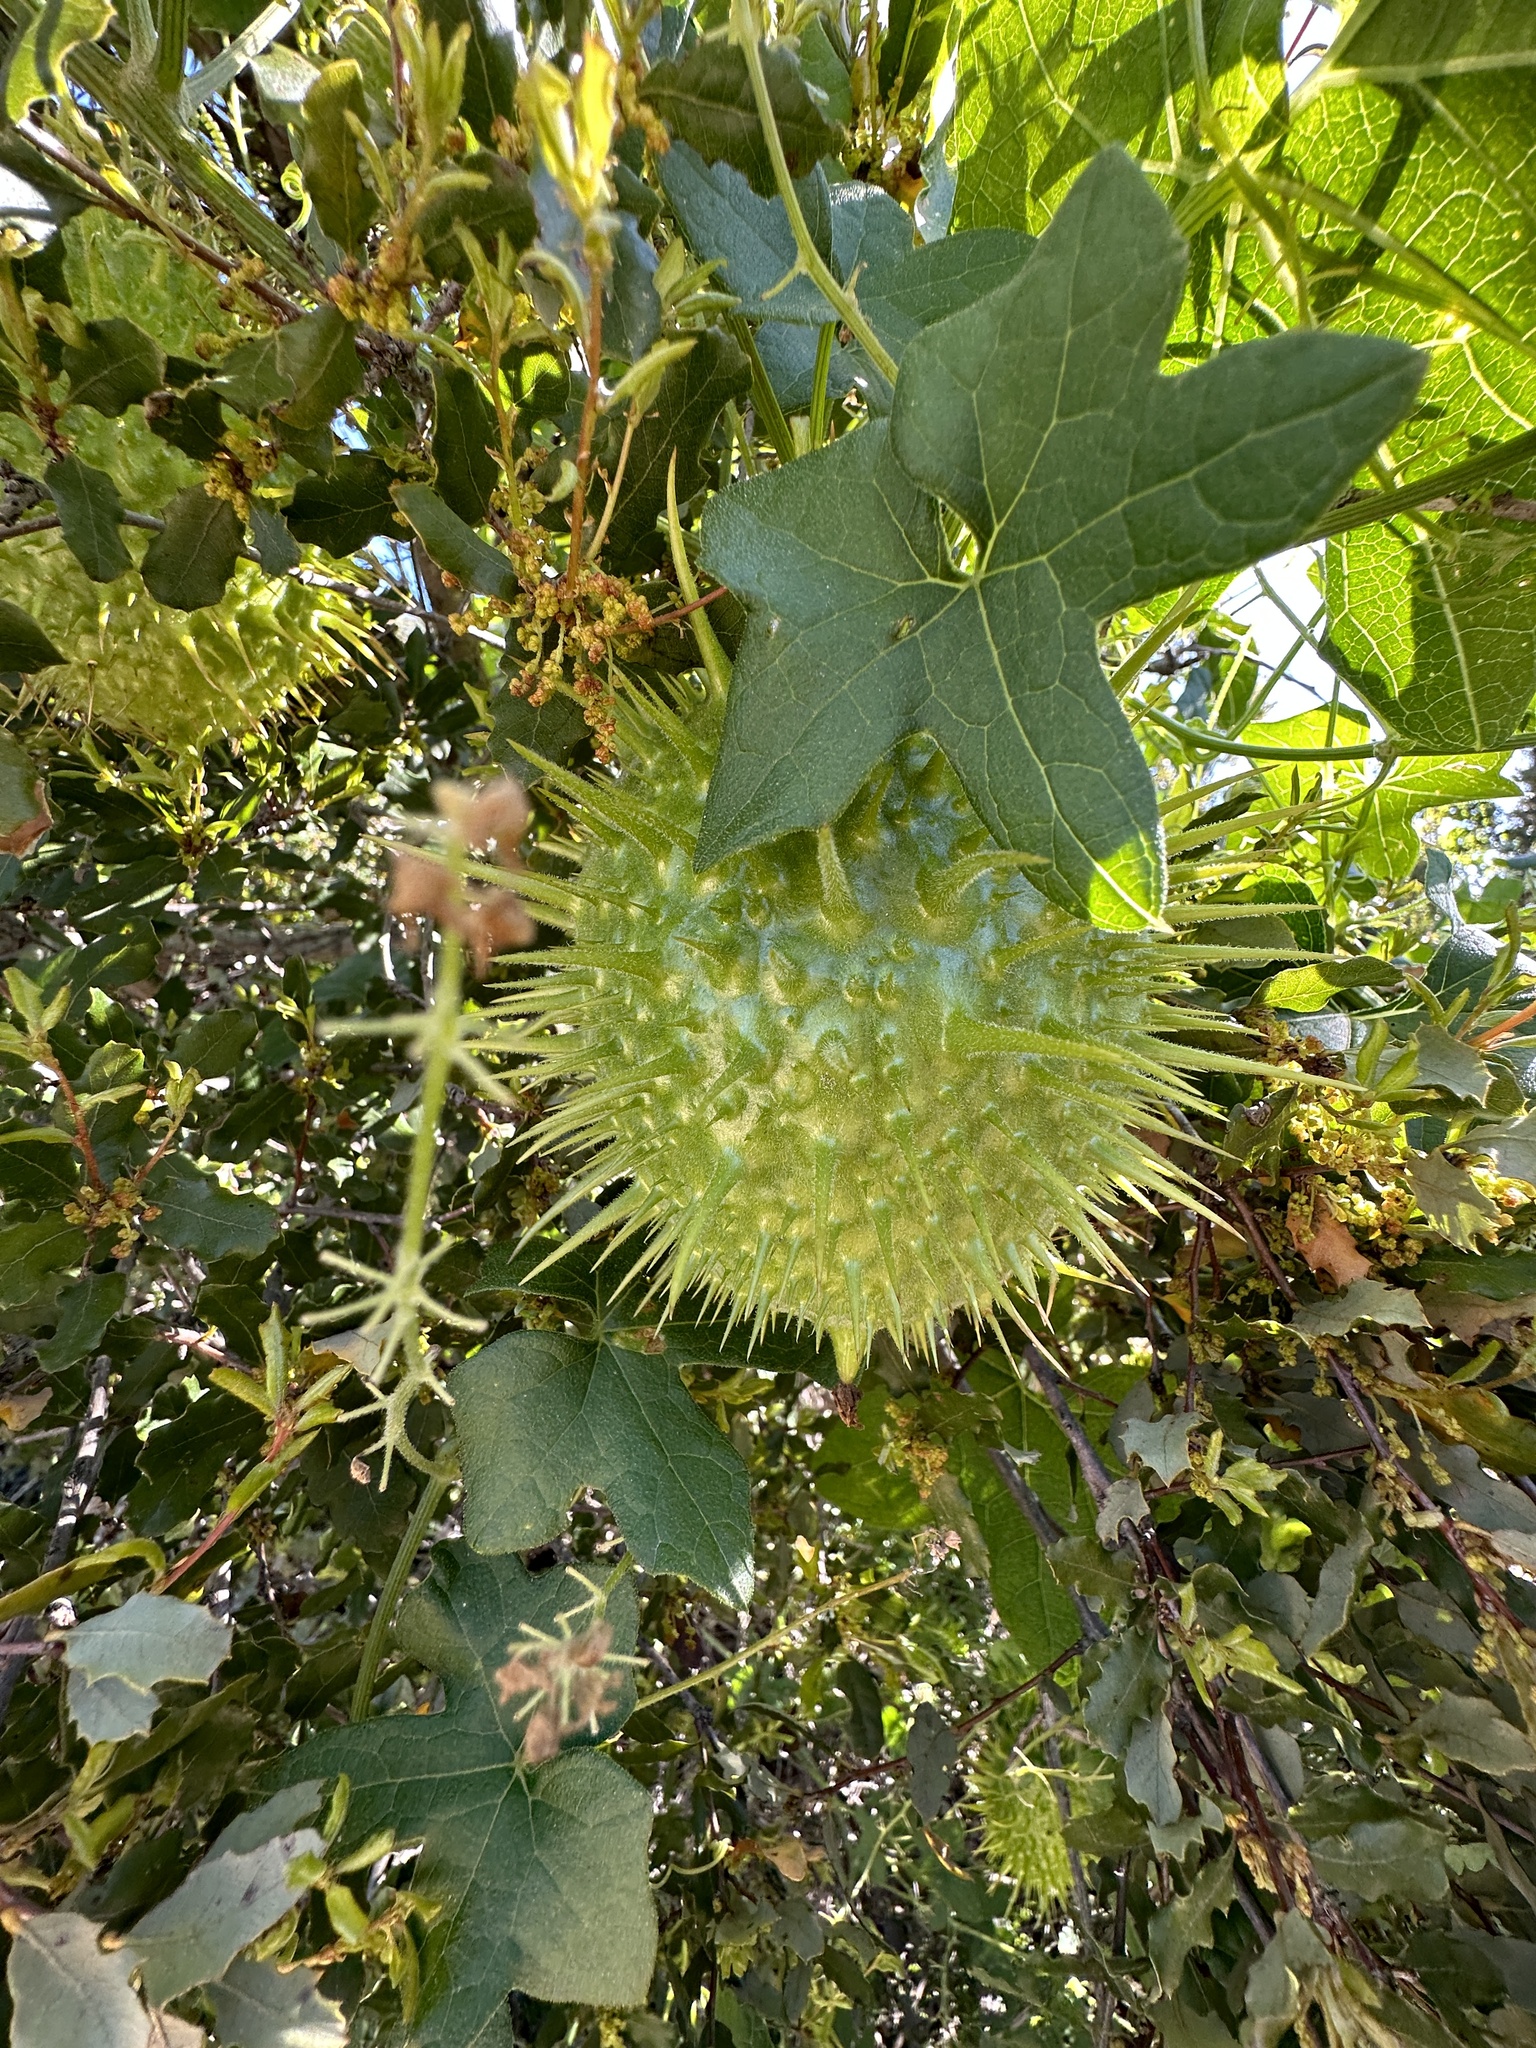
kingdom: Plantae
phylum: Tracheophyta
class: Magnoliopsida
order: Cucurbitales
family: Cucurbitaceae
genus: Marah
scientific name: Marah macrocarpa
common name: Cucamonga manroot
